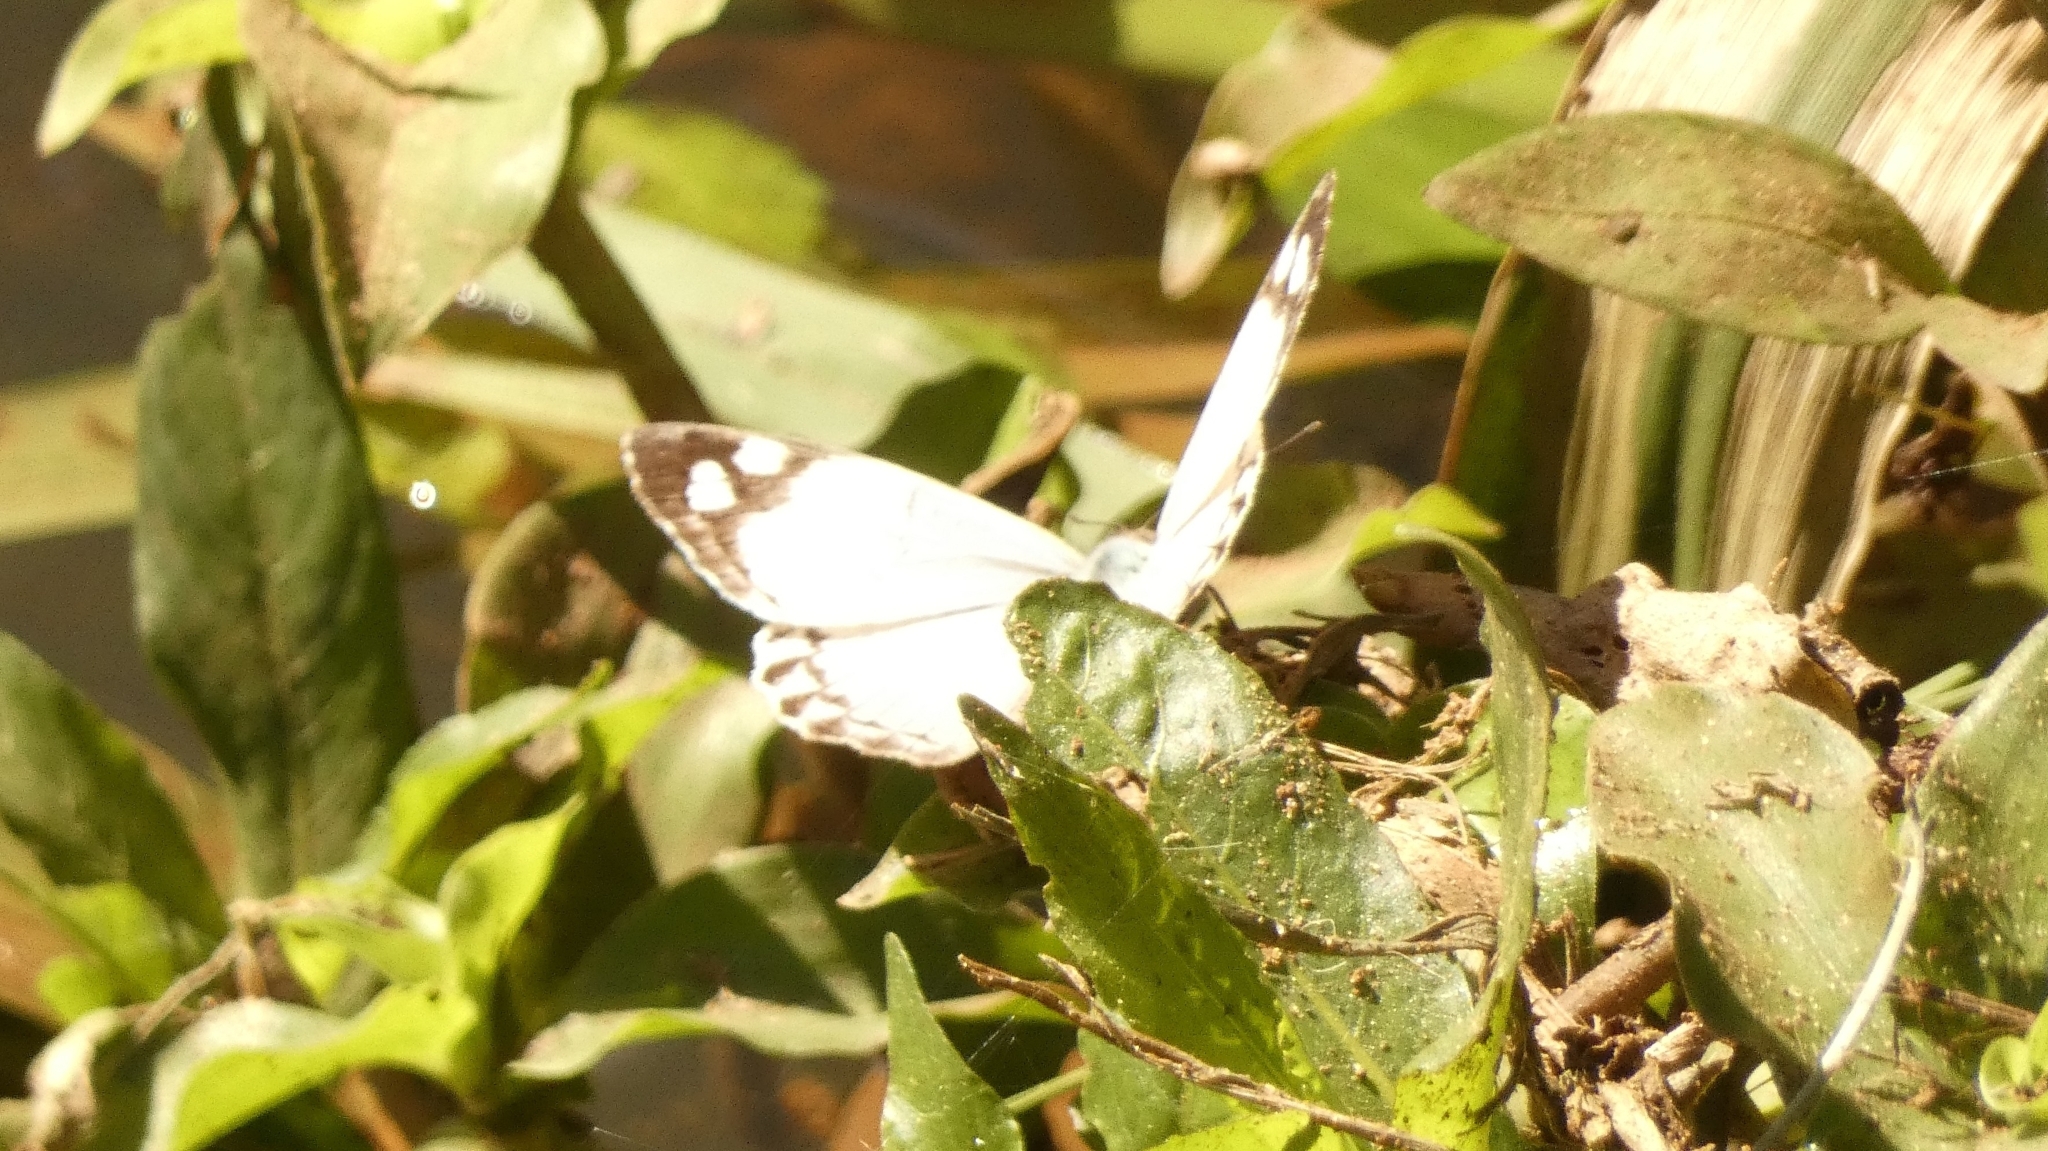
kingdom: Animalia
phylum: Arthropoda
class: Insecta
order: Lepidoptera
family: Nymphalidae
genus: Eunica
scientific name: Eunica eburnea
